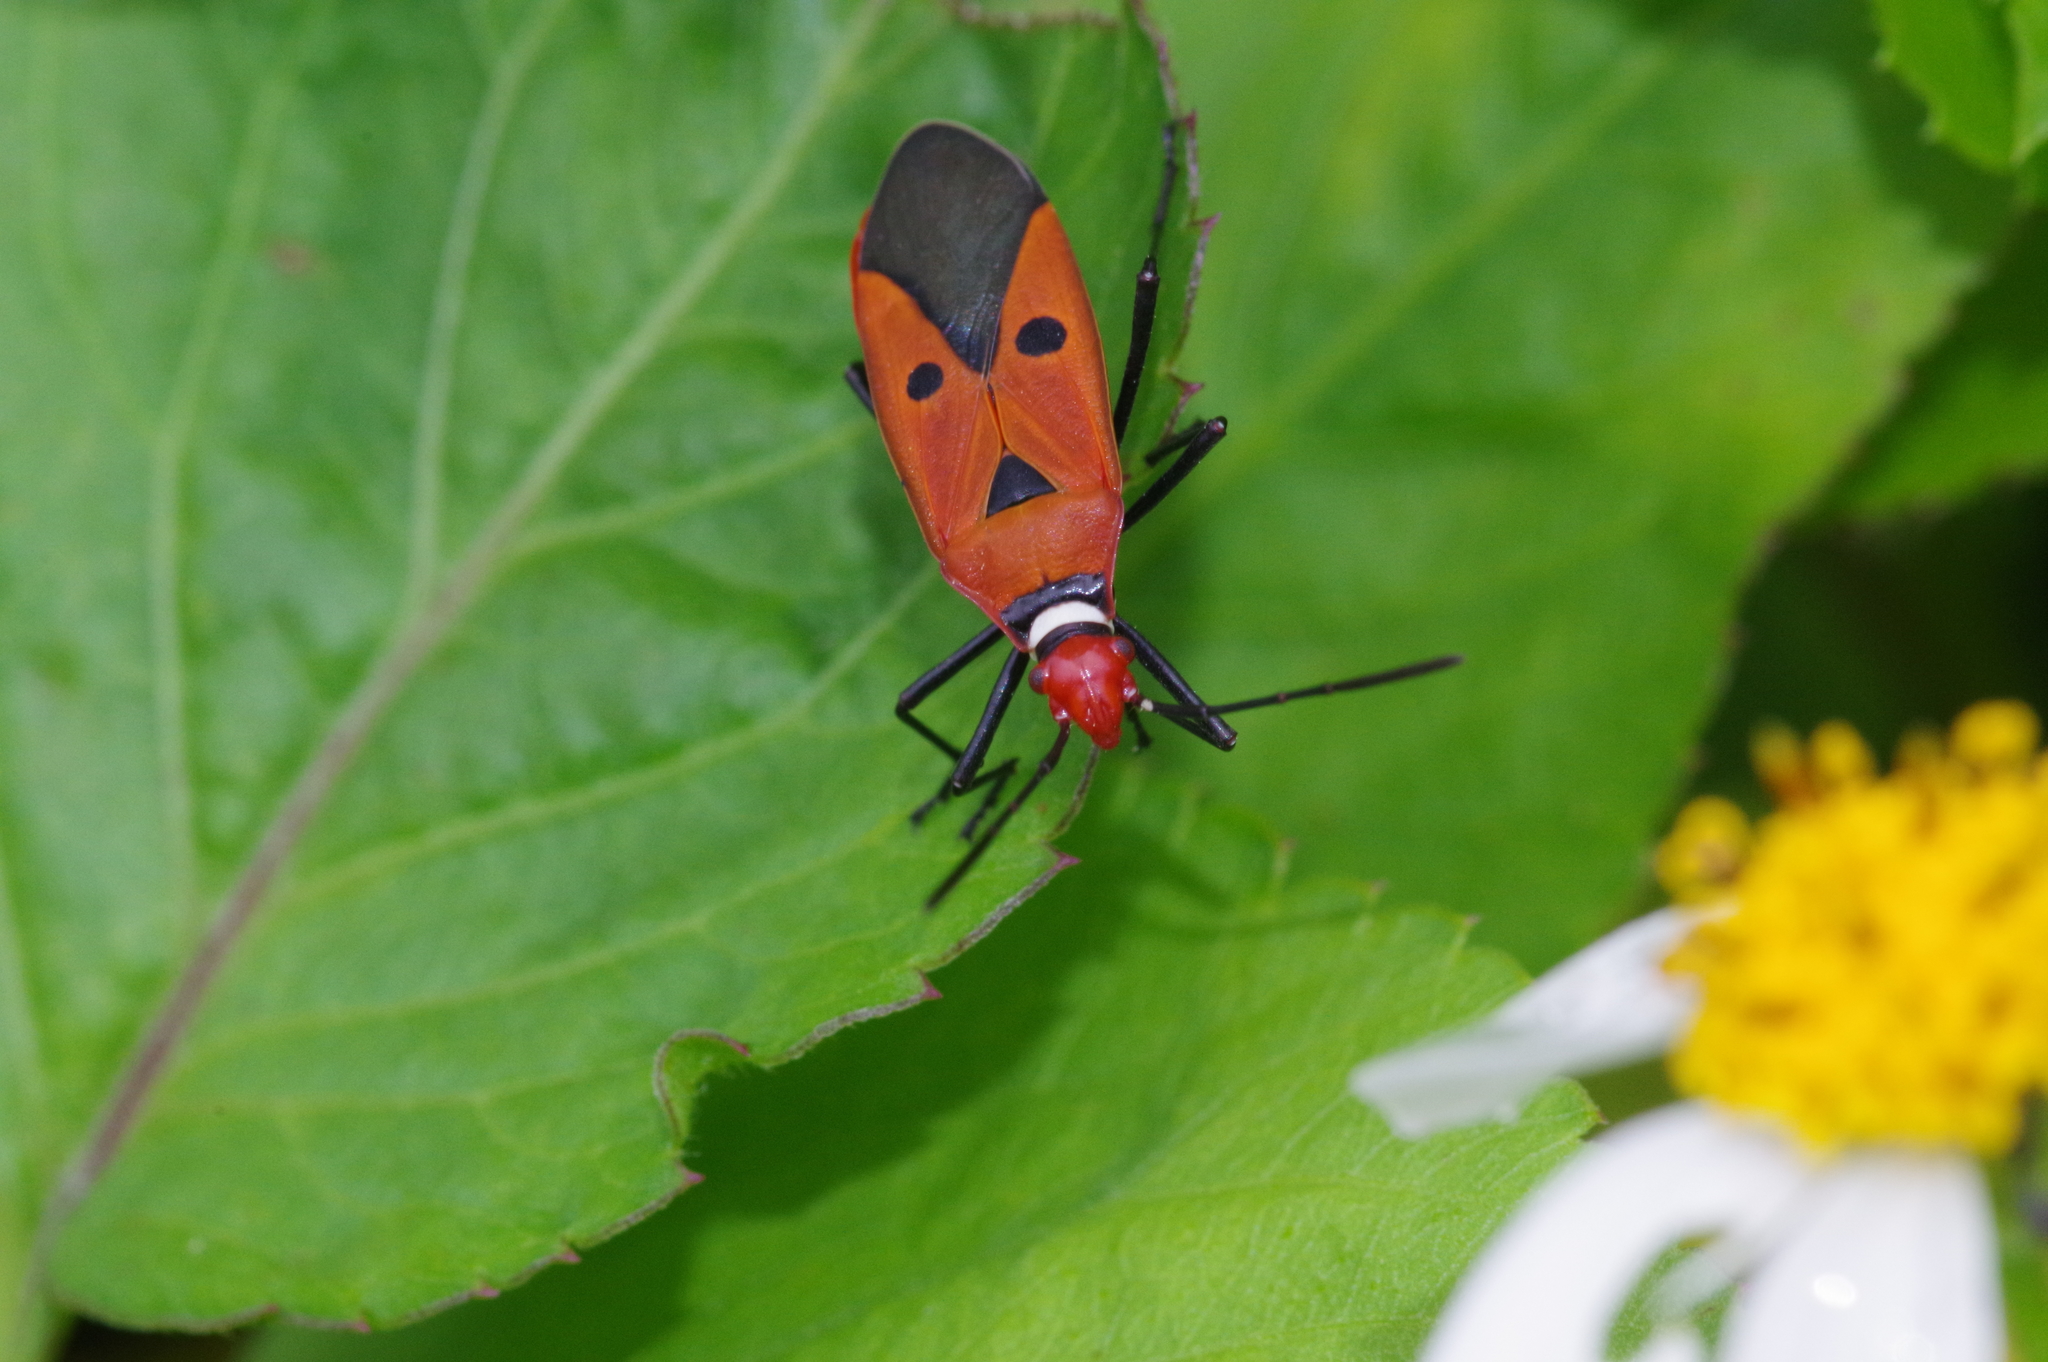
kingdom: Animalia
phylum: Arthropoda
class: Insecta
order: Hemiptera
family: Pyrrhocoridae
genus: Dysdercus
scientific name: Dysdercus cingulatus
